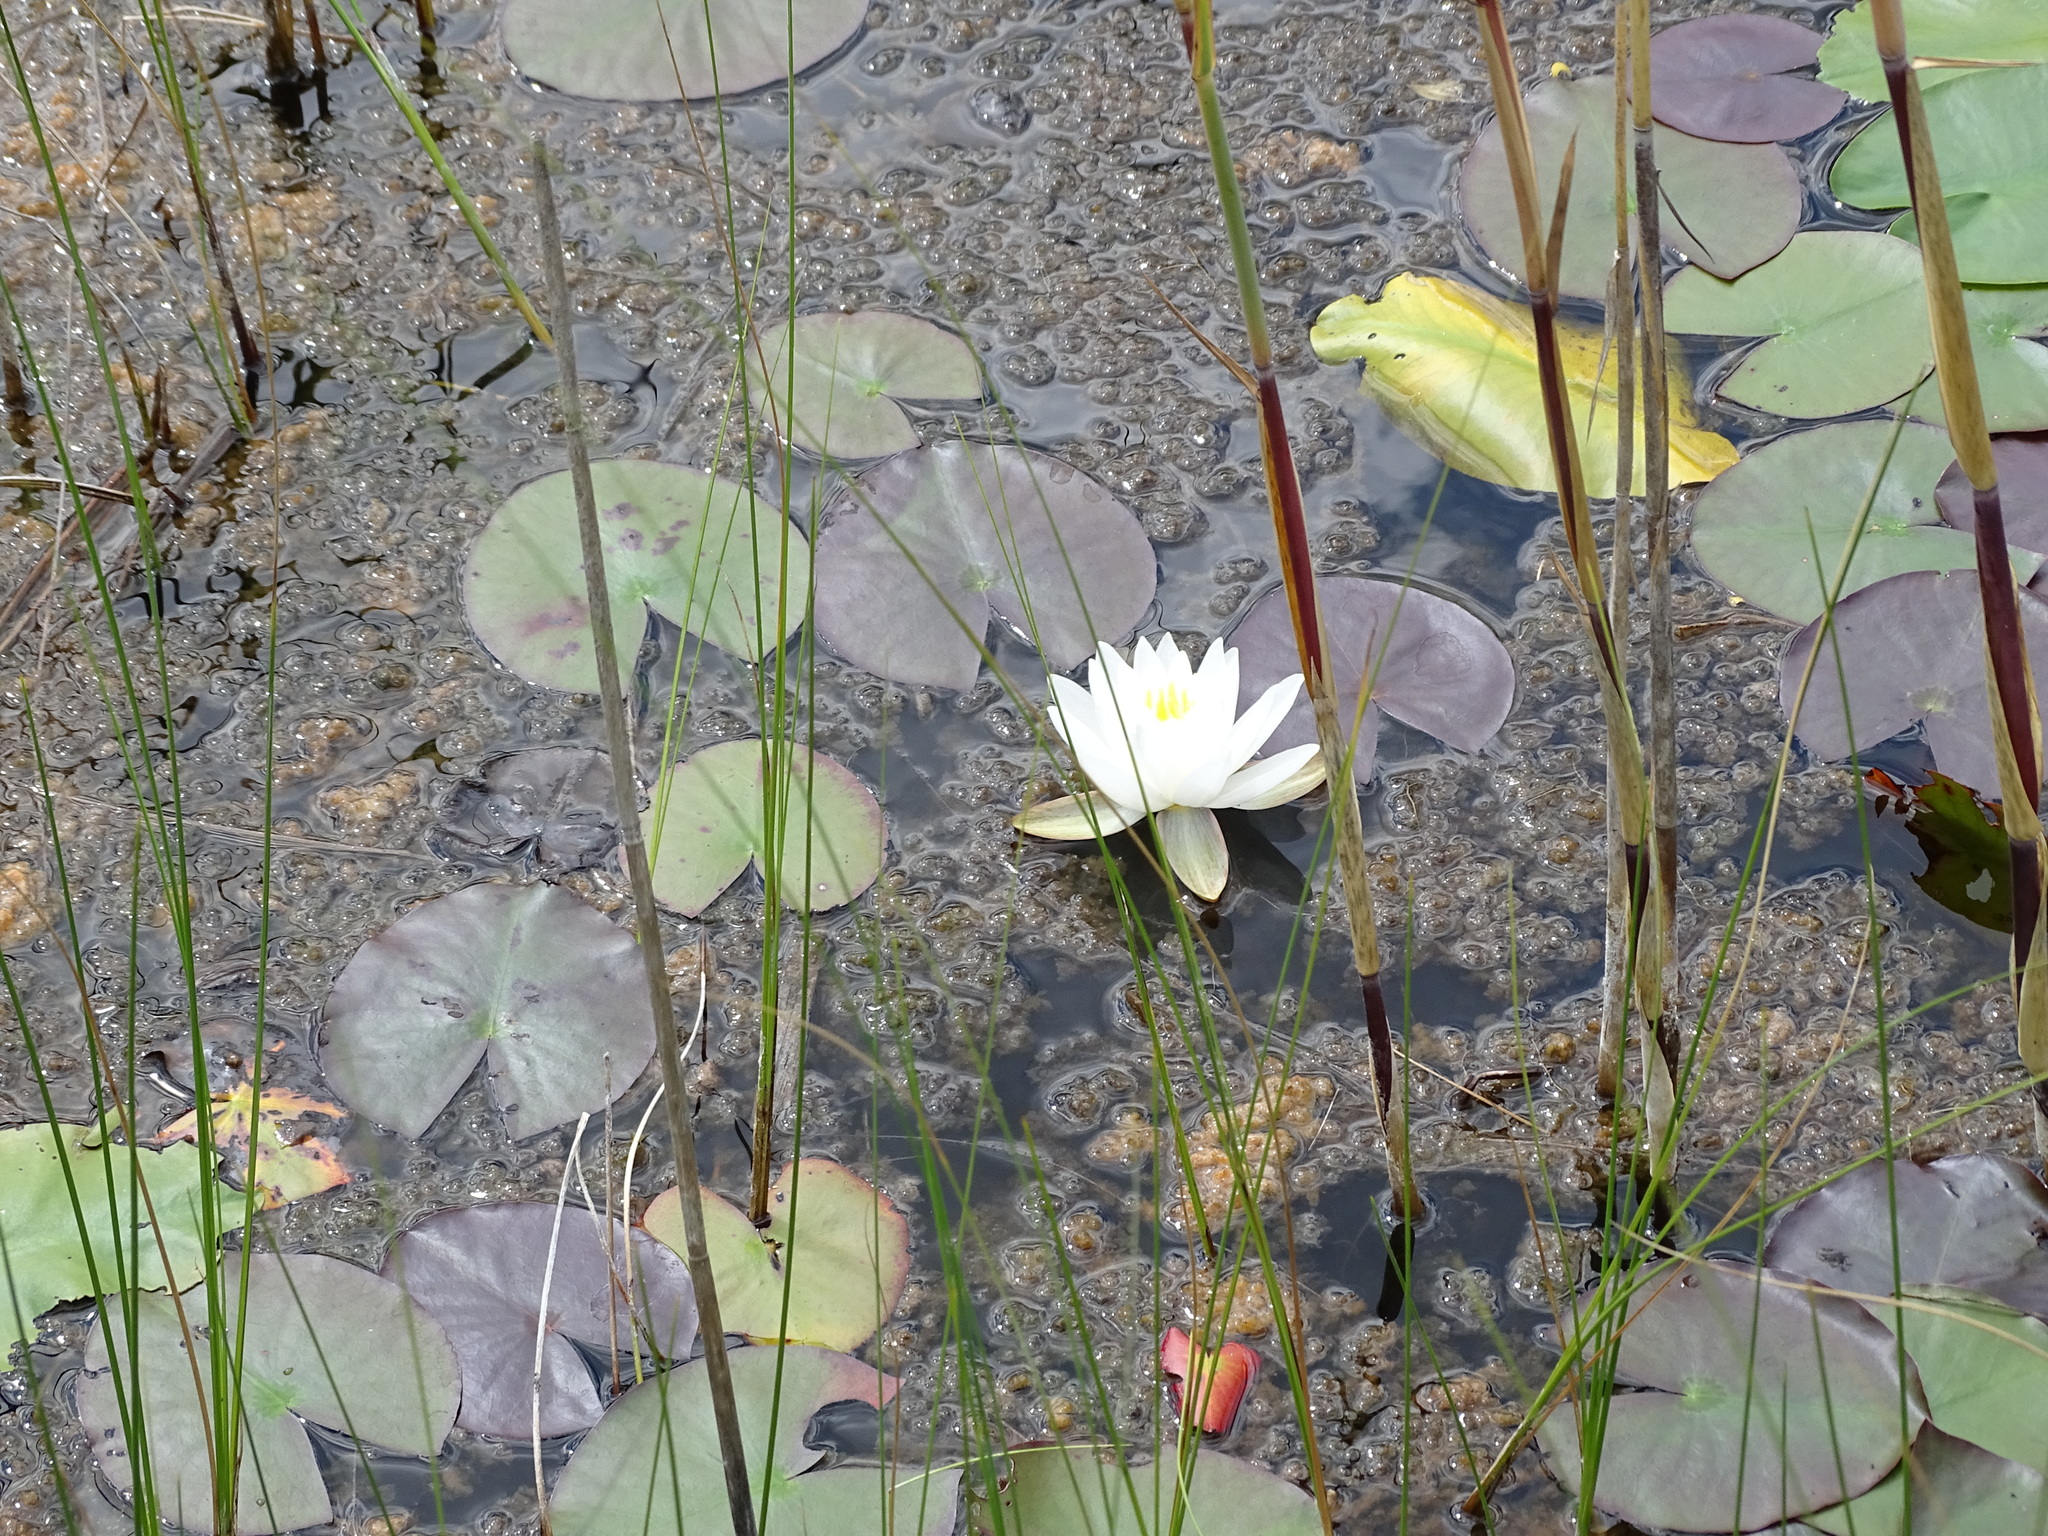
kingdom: Plantae
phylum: Tracheophyta
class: Magnoliopsida
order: Nymphaeales
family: Nymphaeaceae
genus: Nymphaea
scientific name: Nymphaea odorata
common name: Fragrant water-lily
